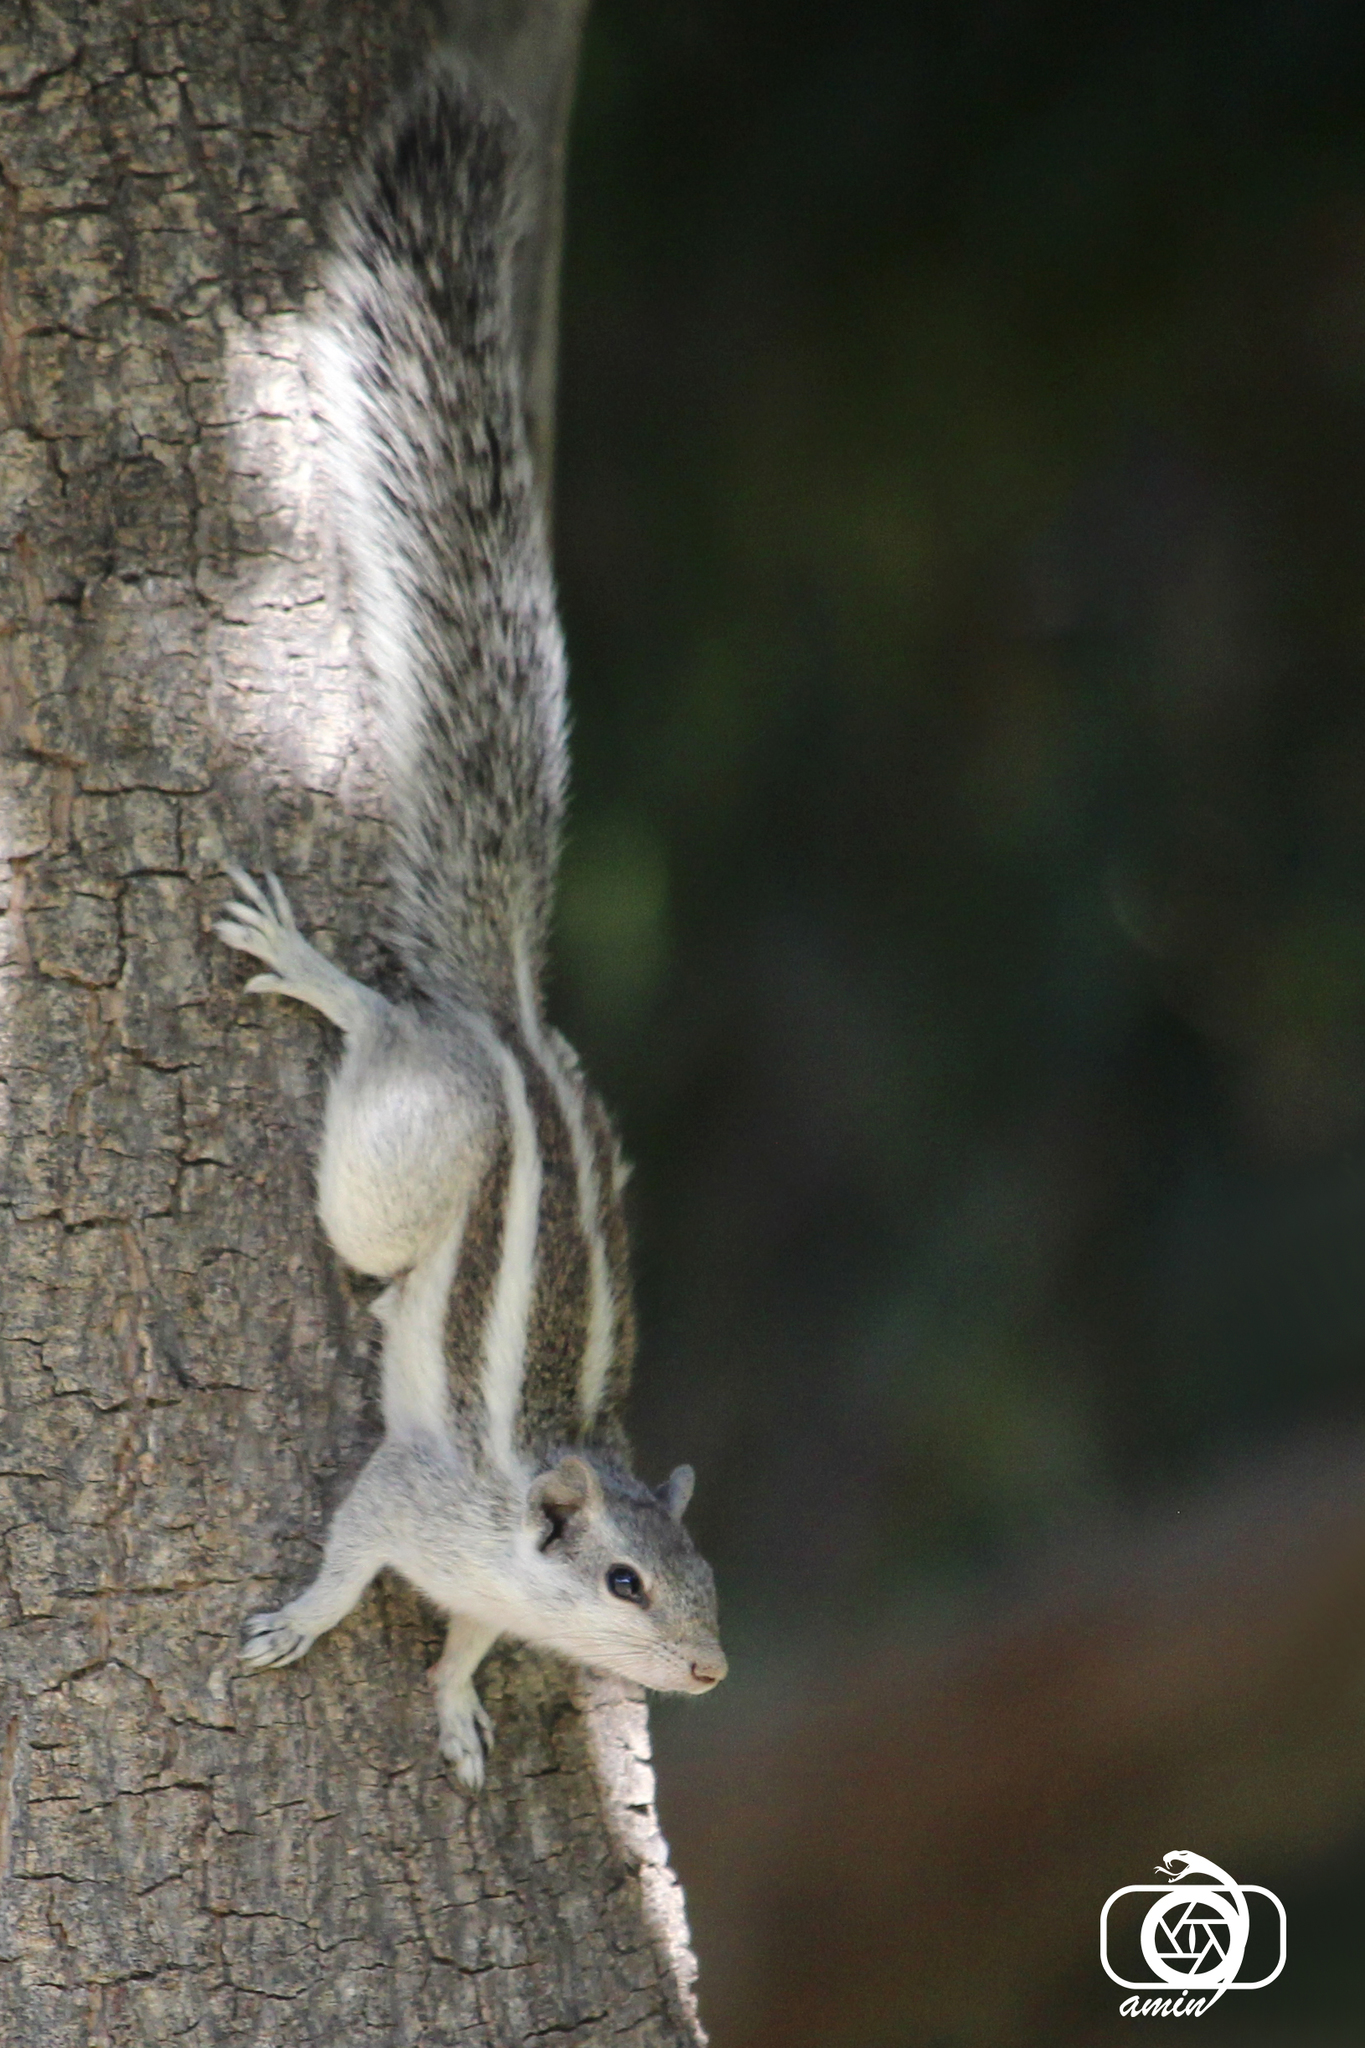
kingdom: Animalia
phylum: Chordata
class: Mammalia
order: Rodentia
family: Sciuridae
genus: Funambulus
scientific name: Funambulus pennantii
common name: Northern palm squirrel
